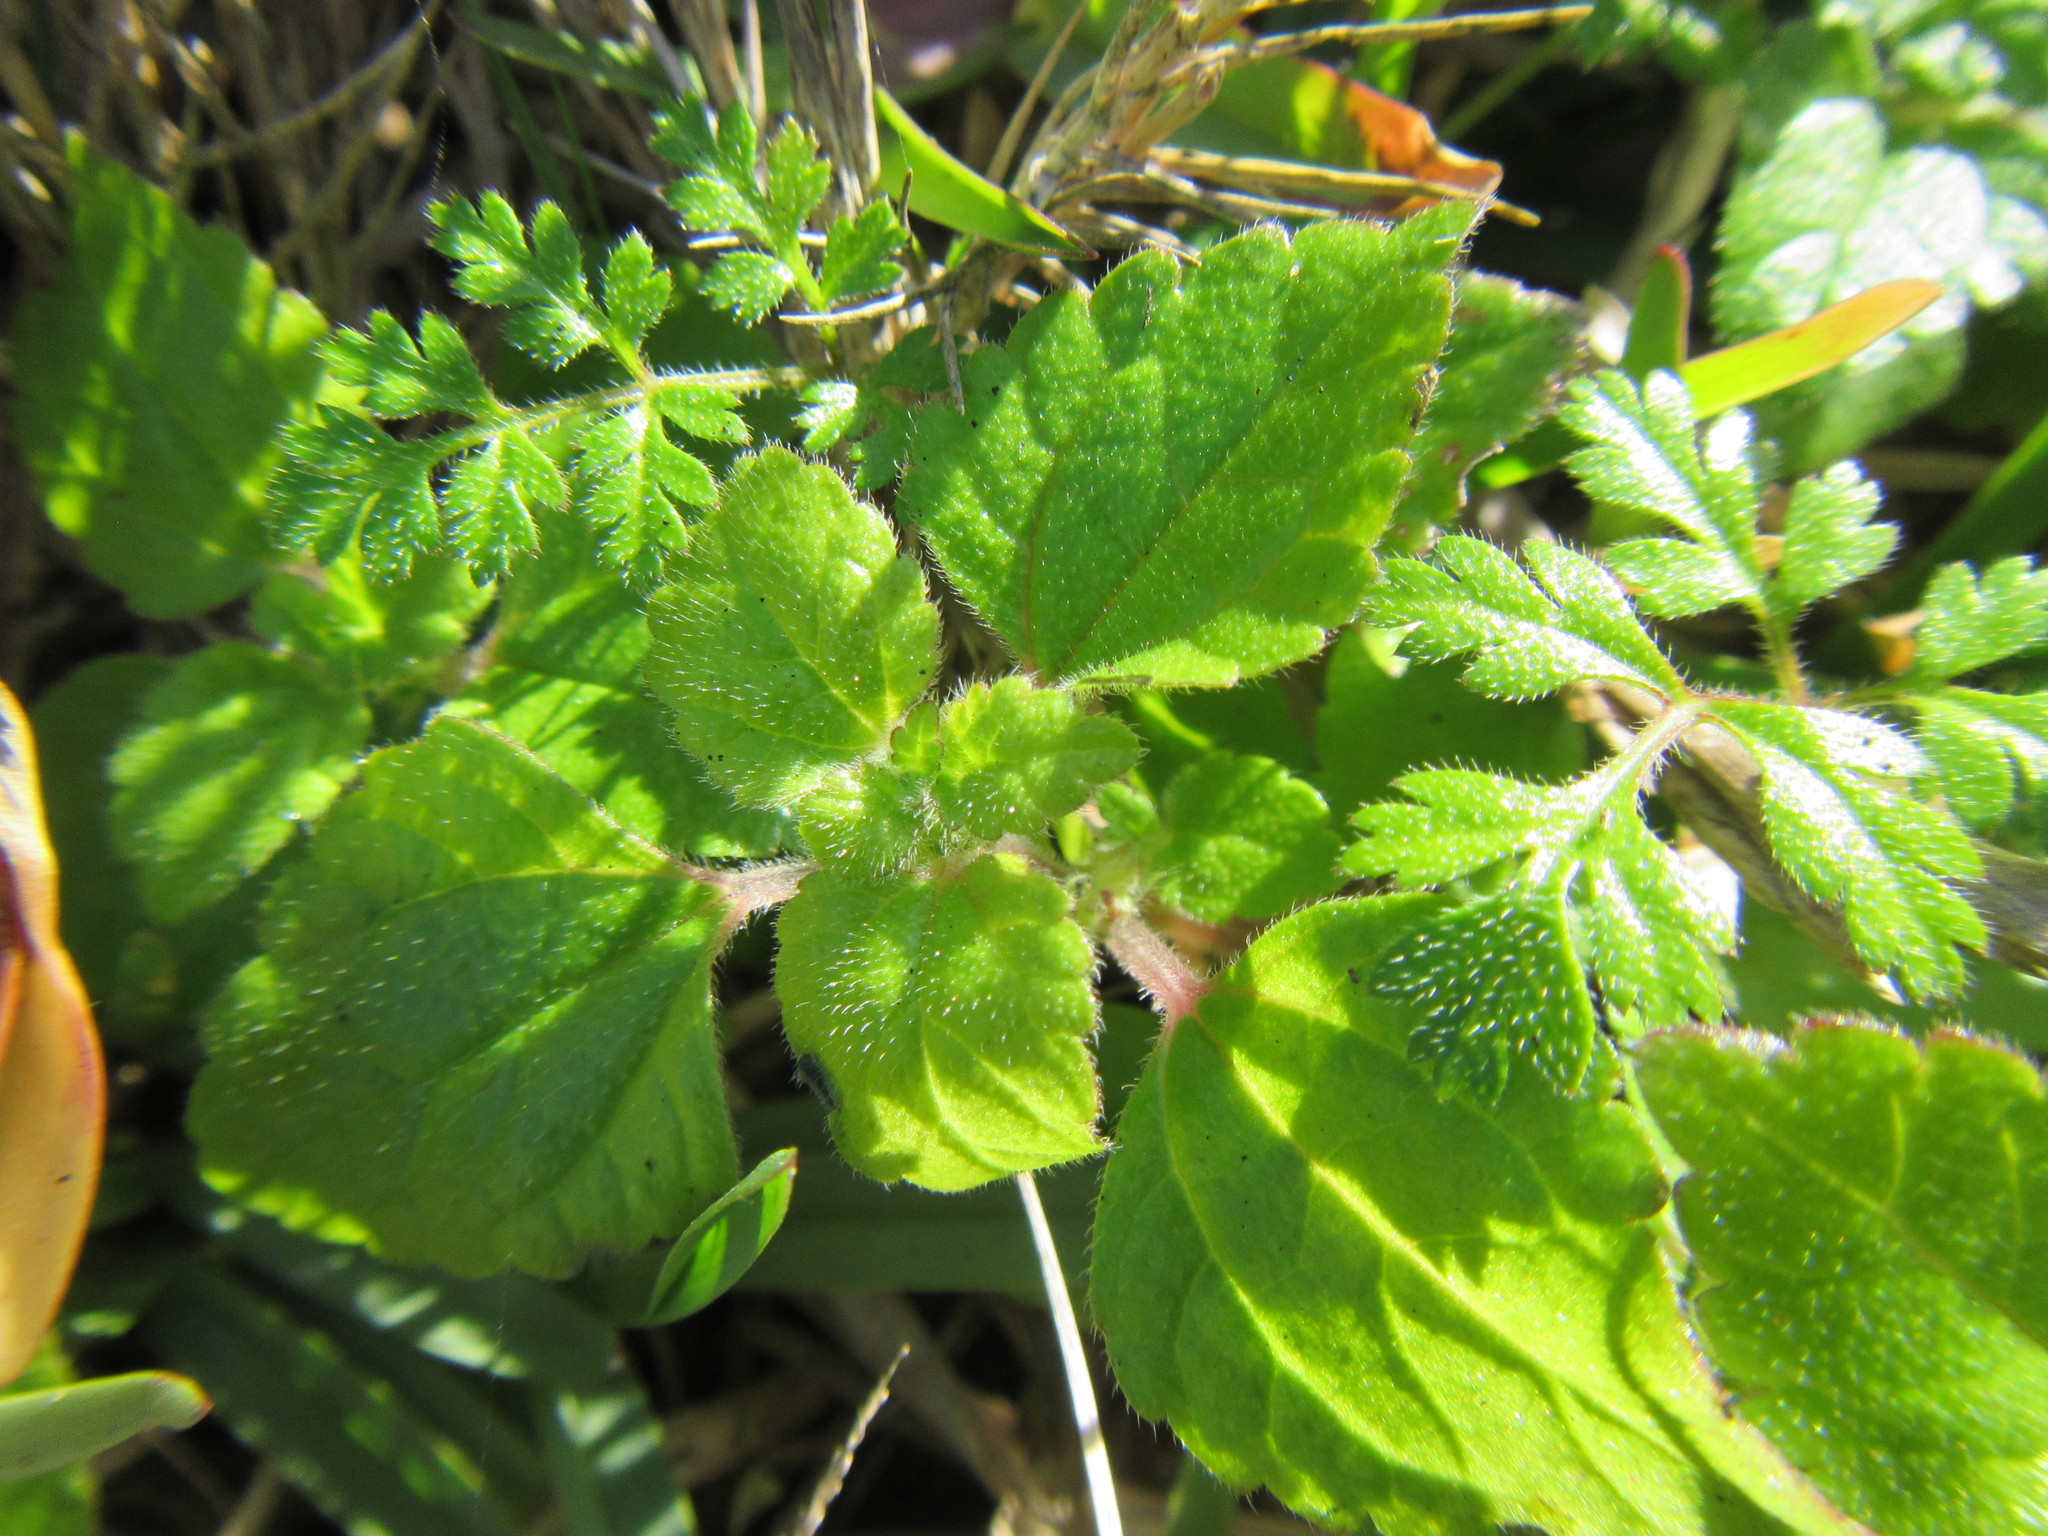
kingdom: Plantae
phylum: Tracheophyta
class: Magnoliopsida
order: Rosales
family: Urticaceae
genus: Didymodoxa
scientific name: Didymodoxa capensis
